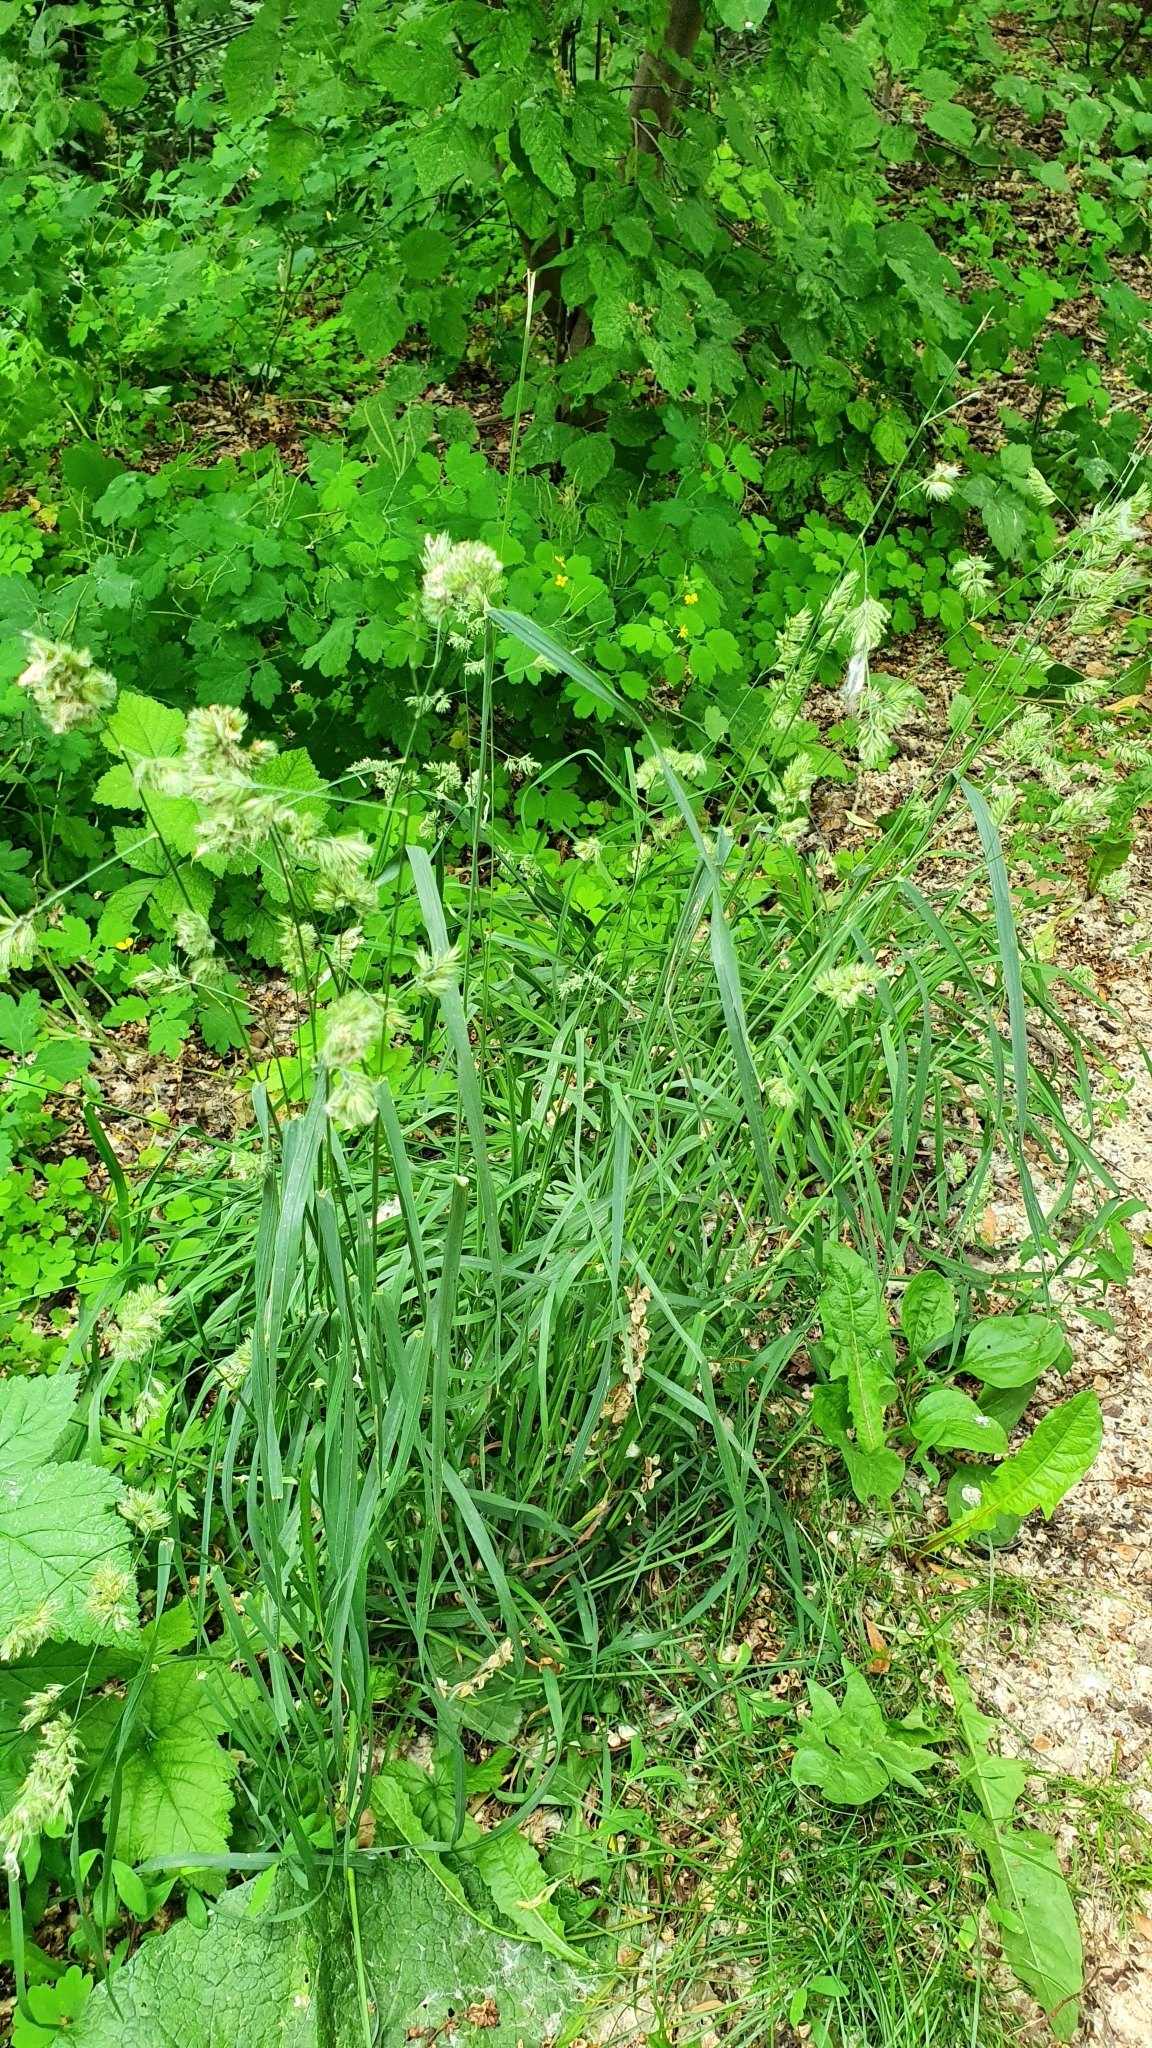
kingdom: Plantae
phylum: Tracheophyta
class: Liliopsida
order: Poales
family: Poaceae
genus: Dactylis
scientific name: Dactylis glomerata
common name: Orchardgrass
